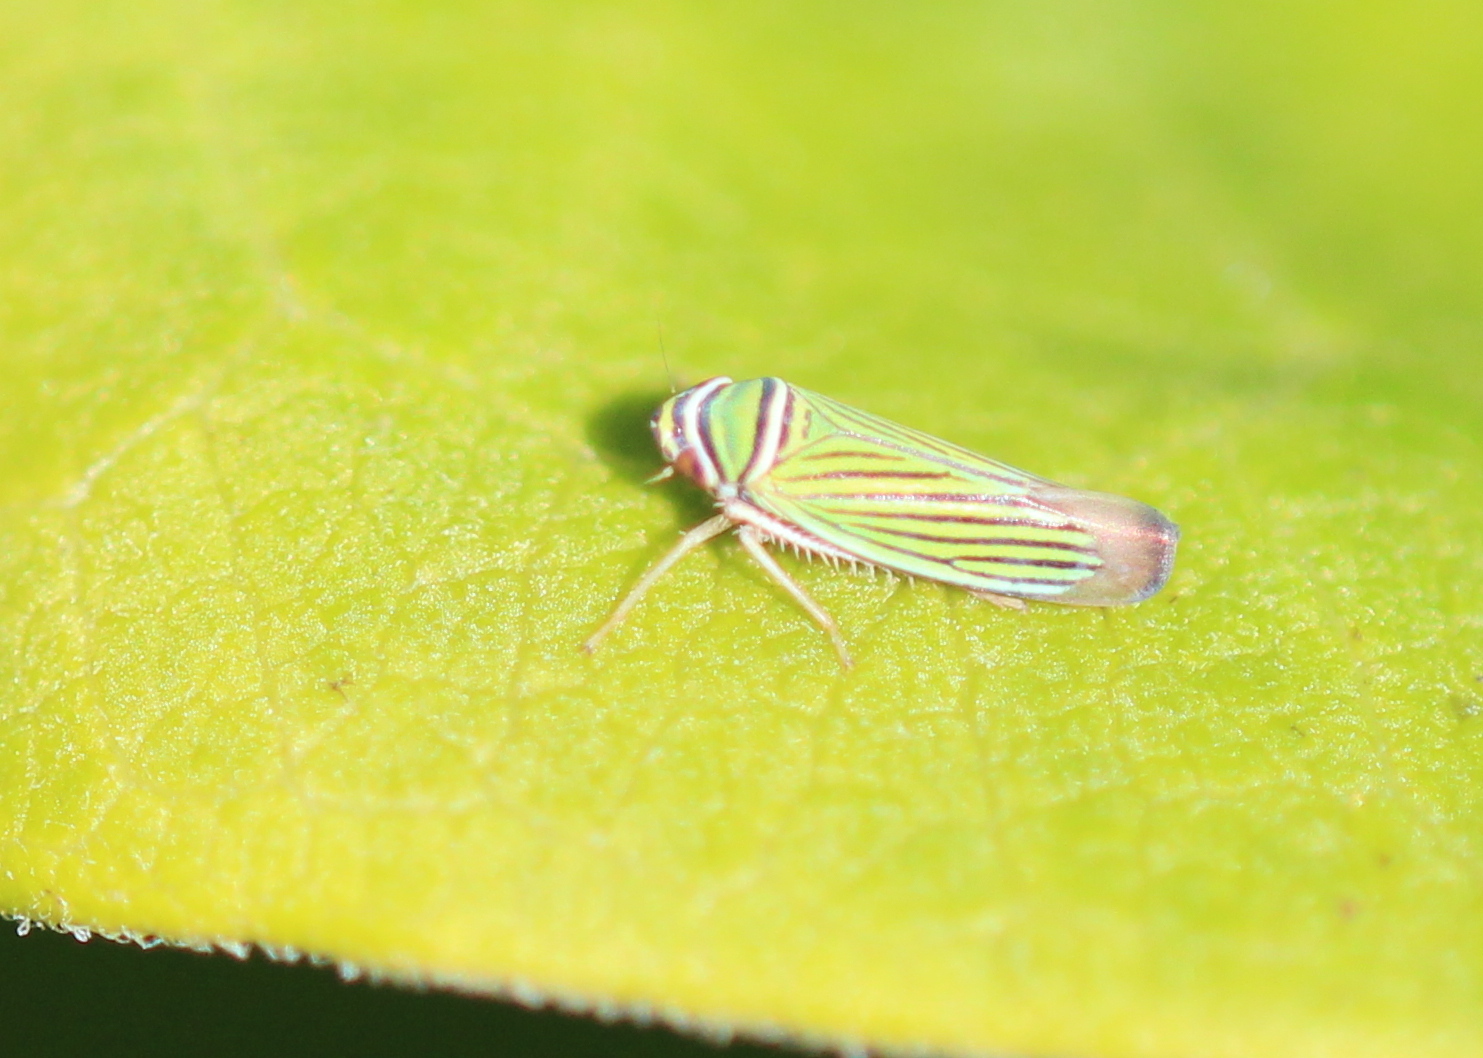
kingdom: Animalia
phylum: Arthropoda
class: Insecta
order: Hemiptera
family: Cicadellidae
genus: Tylozygus
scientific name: Tylozygus bifidus
